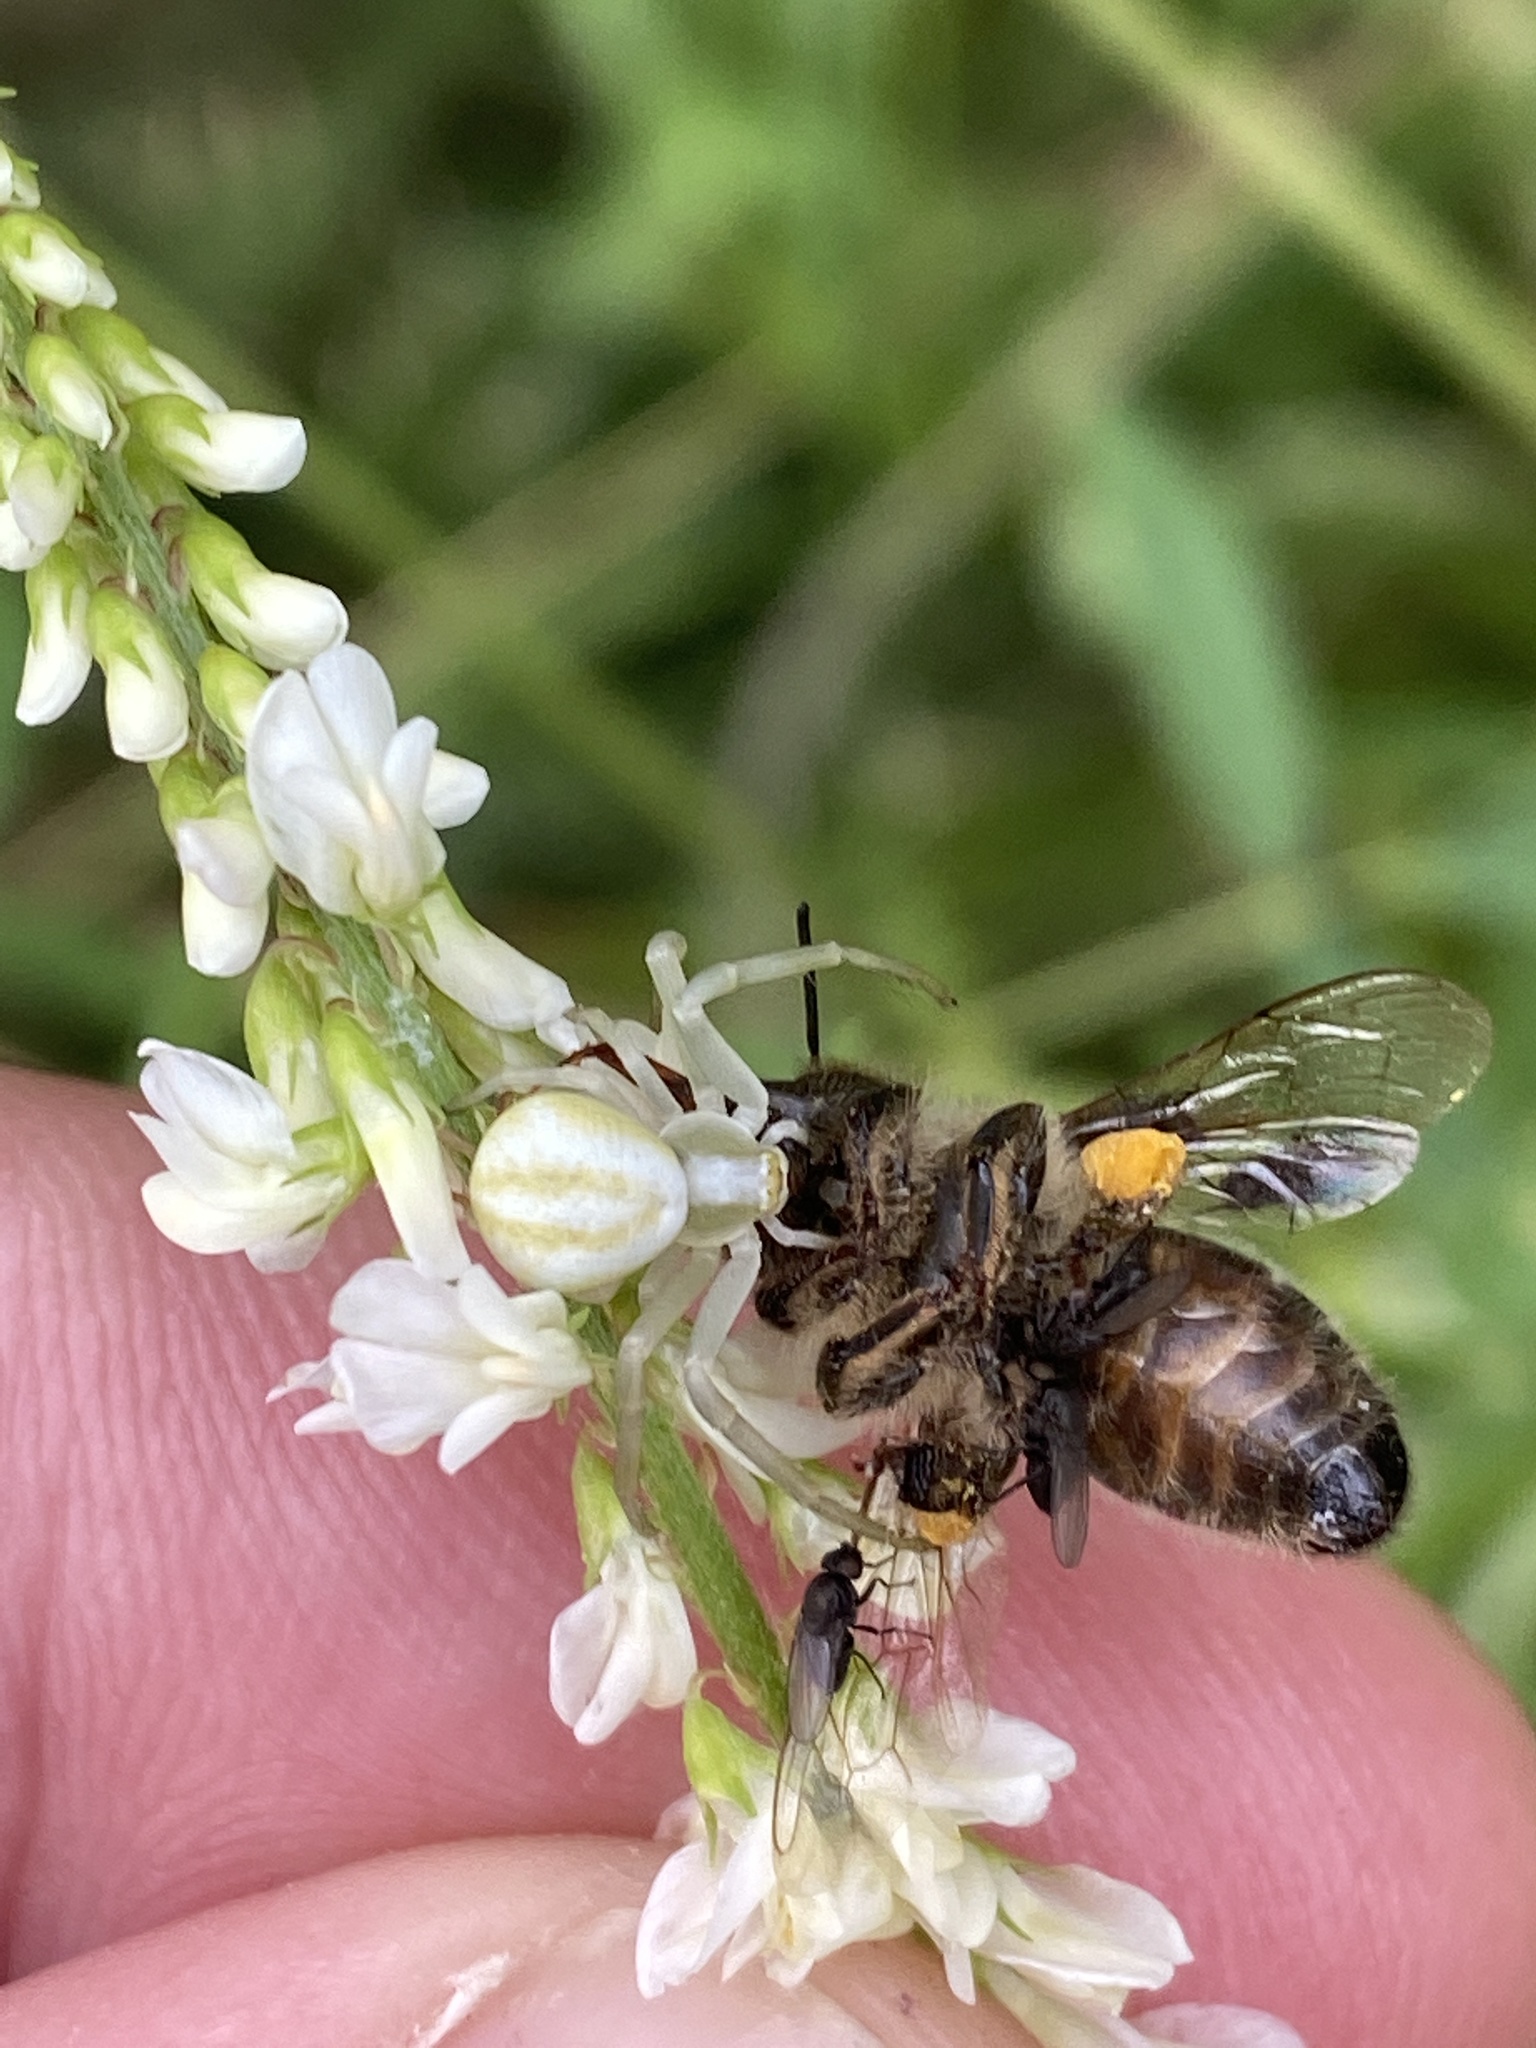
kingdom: Animalia
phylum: Arthropoda
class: Arachnida
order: Araneae
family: Thomisidae
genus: Misumena
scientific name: Misumena vatia
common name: Goldenrod crab spider
